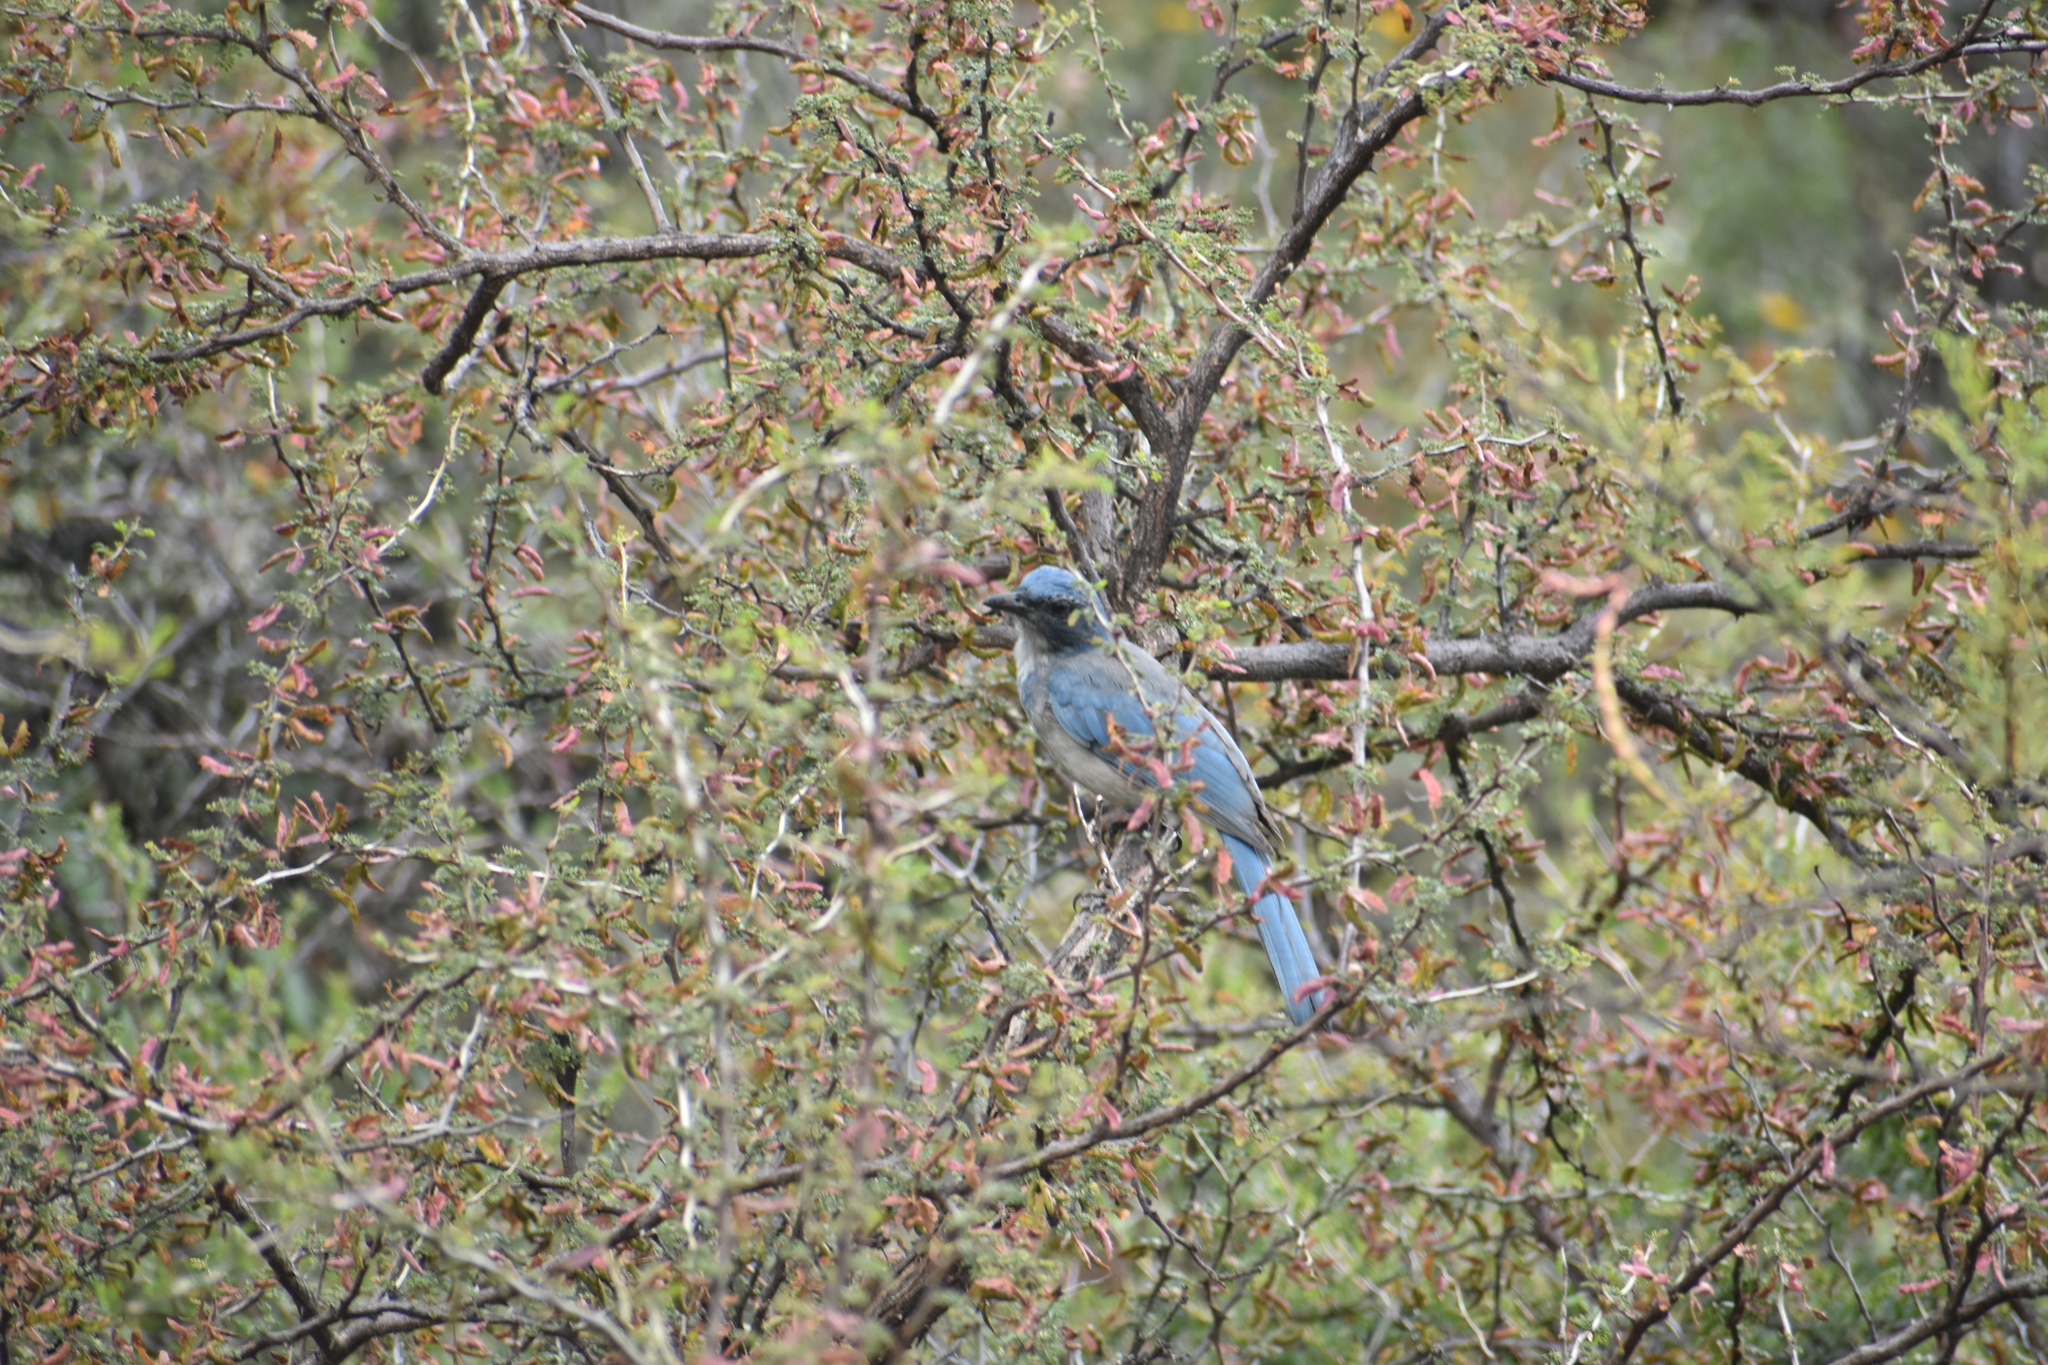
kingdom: Animalia
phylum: Chordata
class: Aves
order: Passeriformes
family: Corvidae
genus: Aphelocoma
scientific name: Aphelocoma wollweberi
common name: Mexican jay
